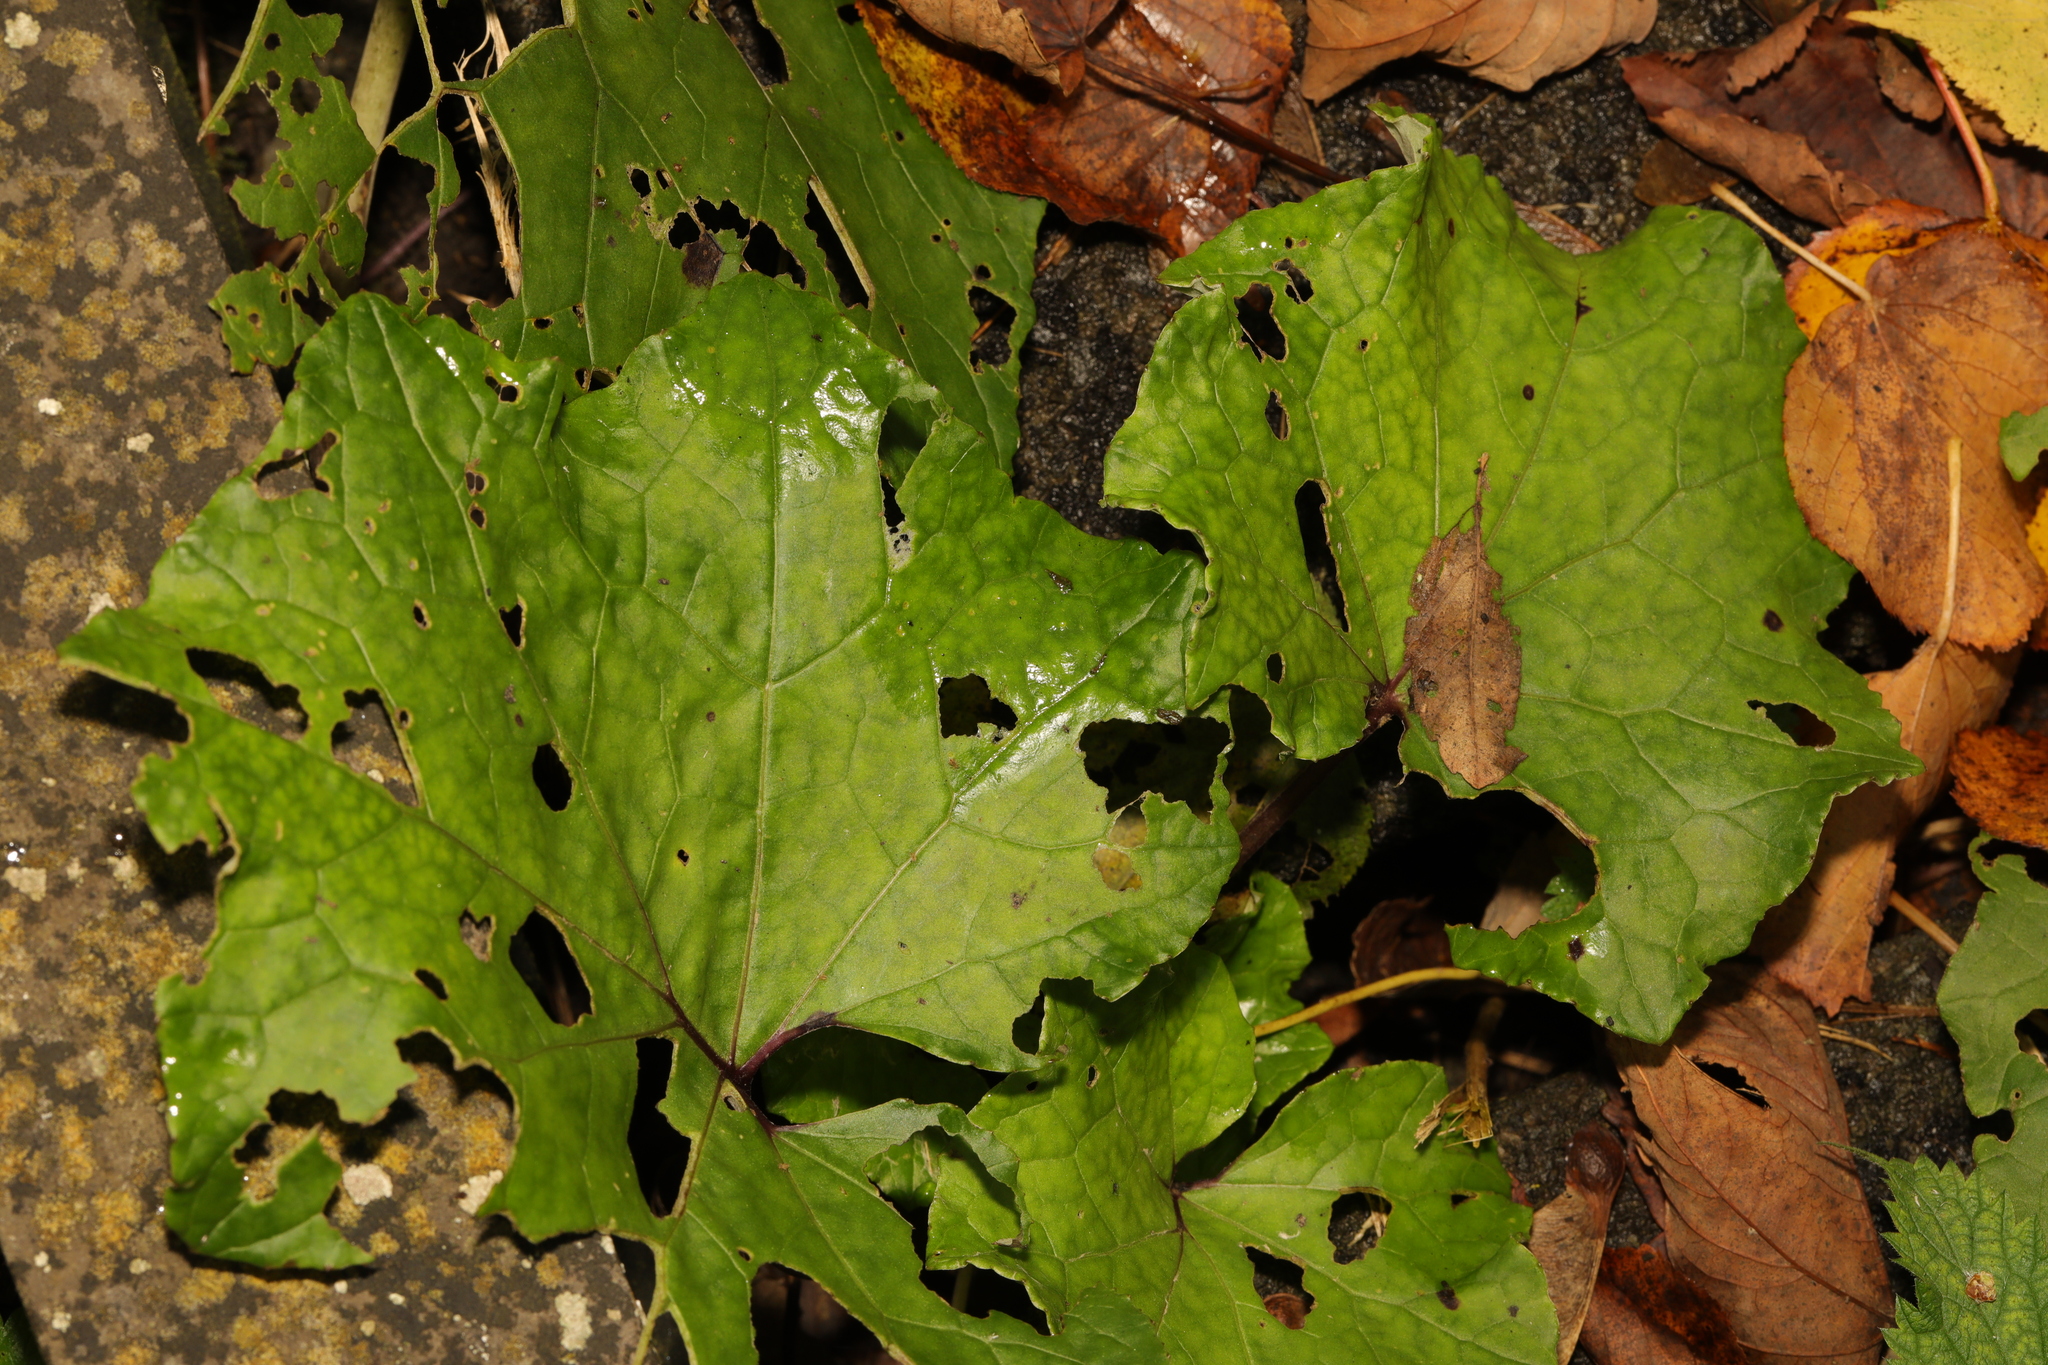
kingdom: Plantae
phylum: Tracheophyta
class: Magnoliopsida
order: Asterales
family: Asteraceae
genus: Tussilago
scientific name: Tussilago farfara
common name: Coltsfoot
